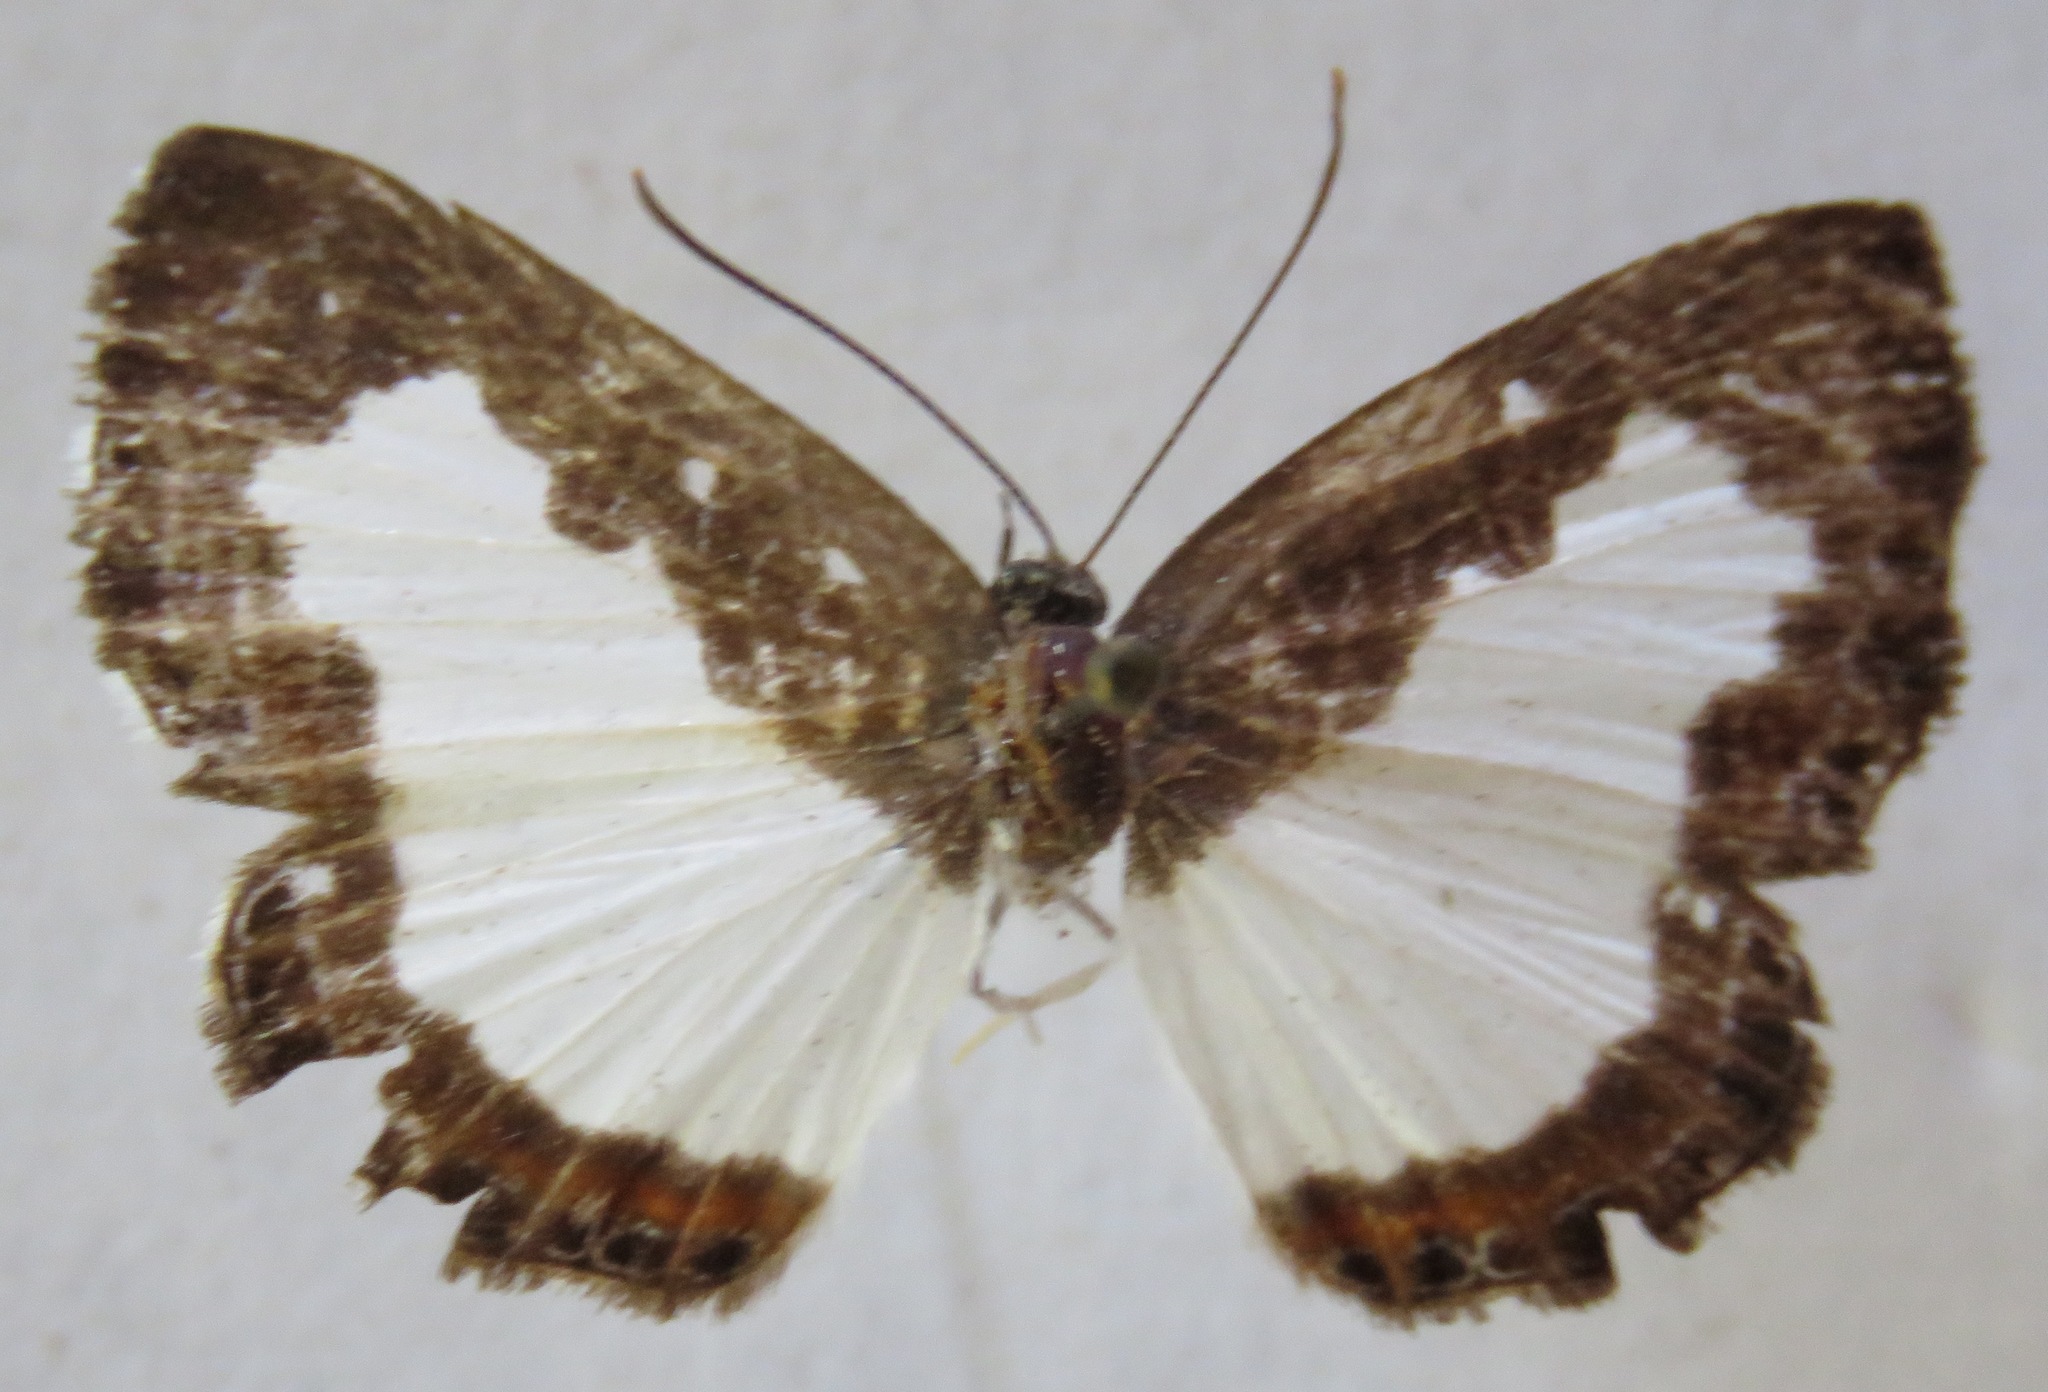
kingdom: Animalia
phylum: Arthropoda
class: Insecta
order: Lepidoptera
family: Riodinidae
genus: Juditha
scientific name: Juditha caucana
